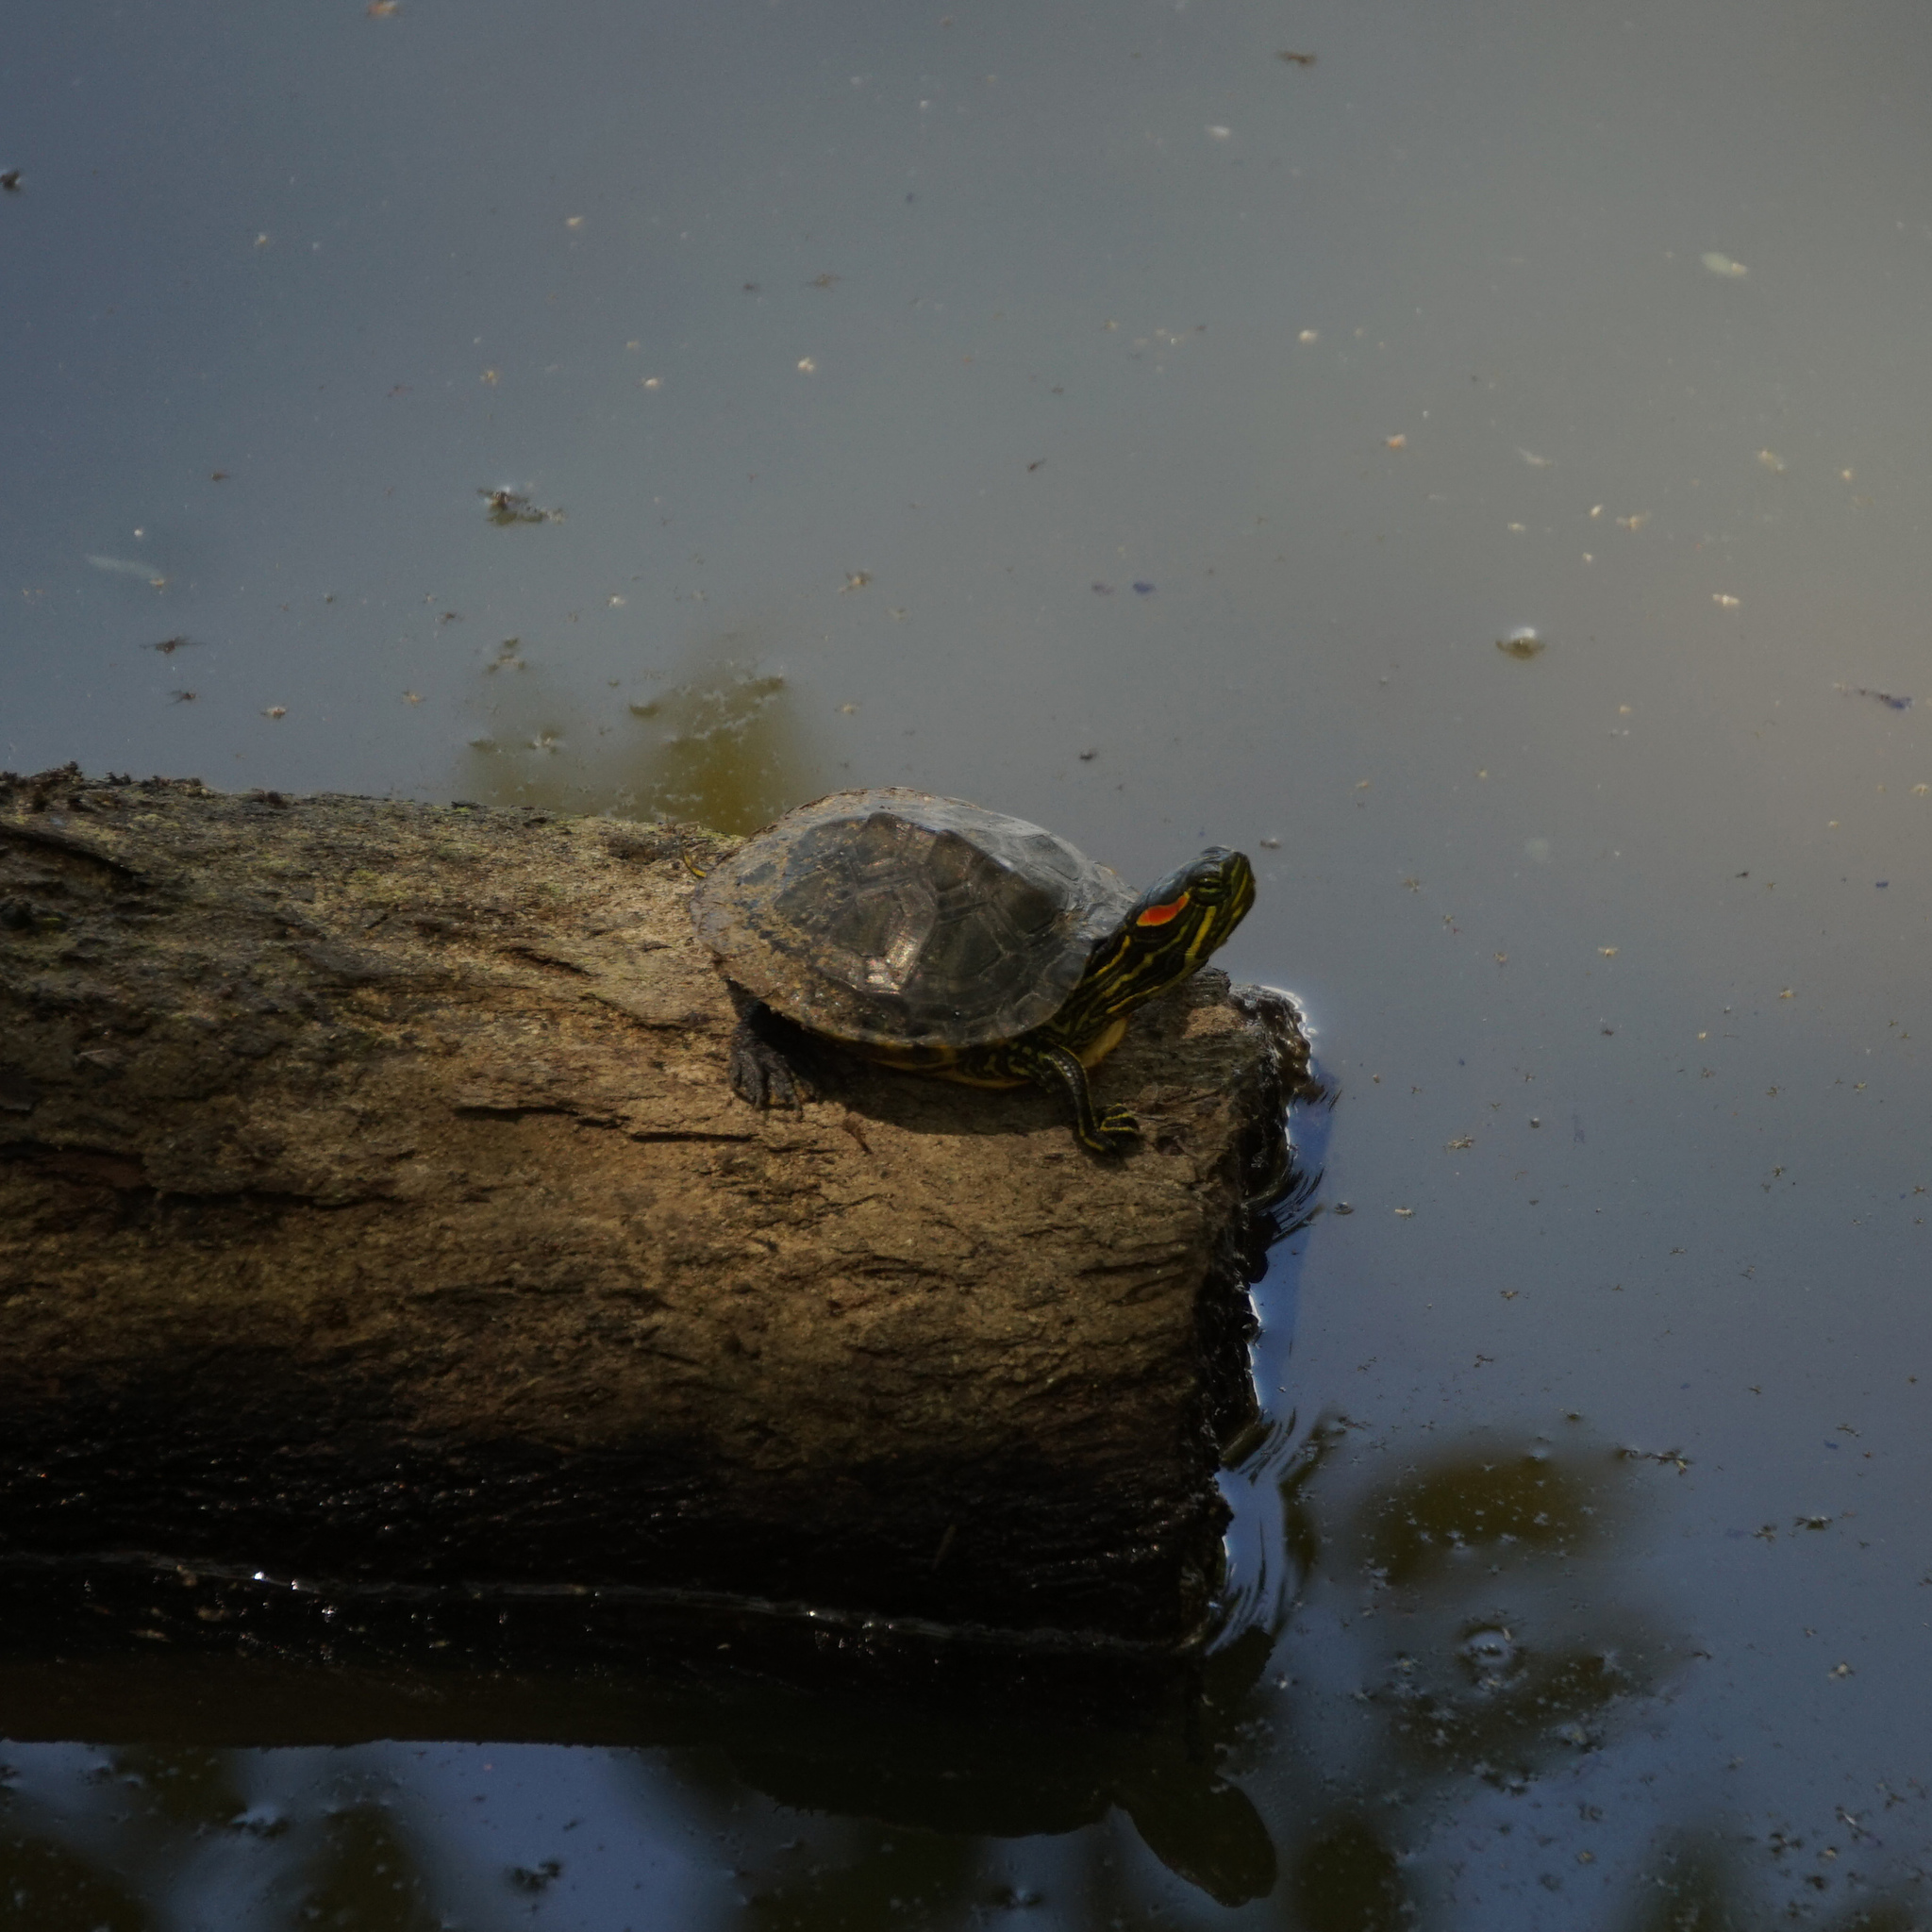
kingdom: Animalia
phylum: Chordata
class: Testudines
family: Emydidae
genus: Trachemys
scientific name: Trachemys scripta
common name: Slider
